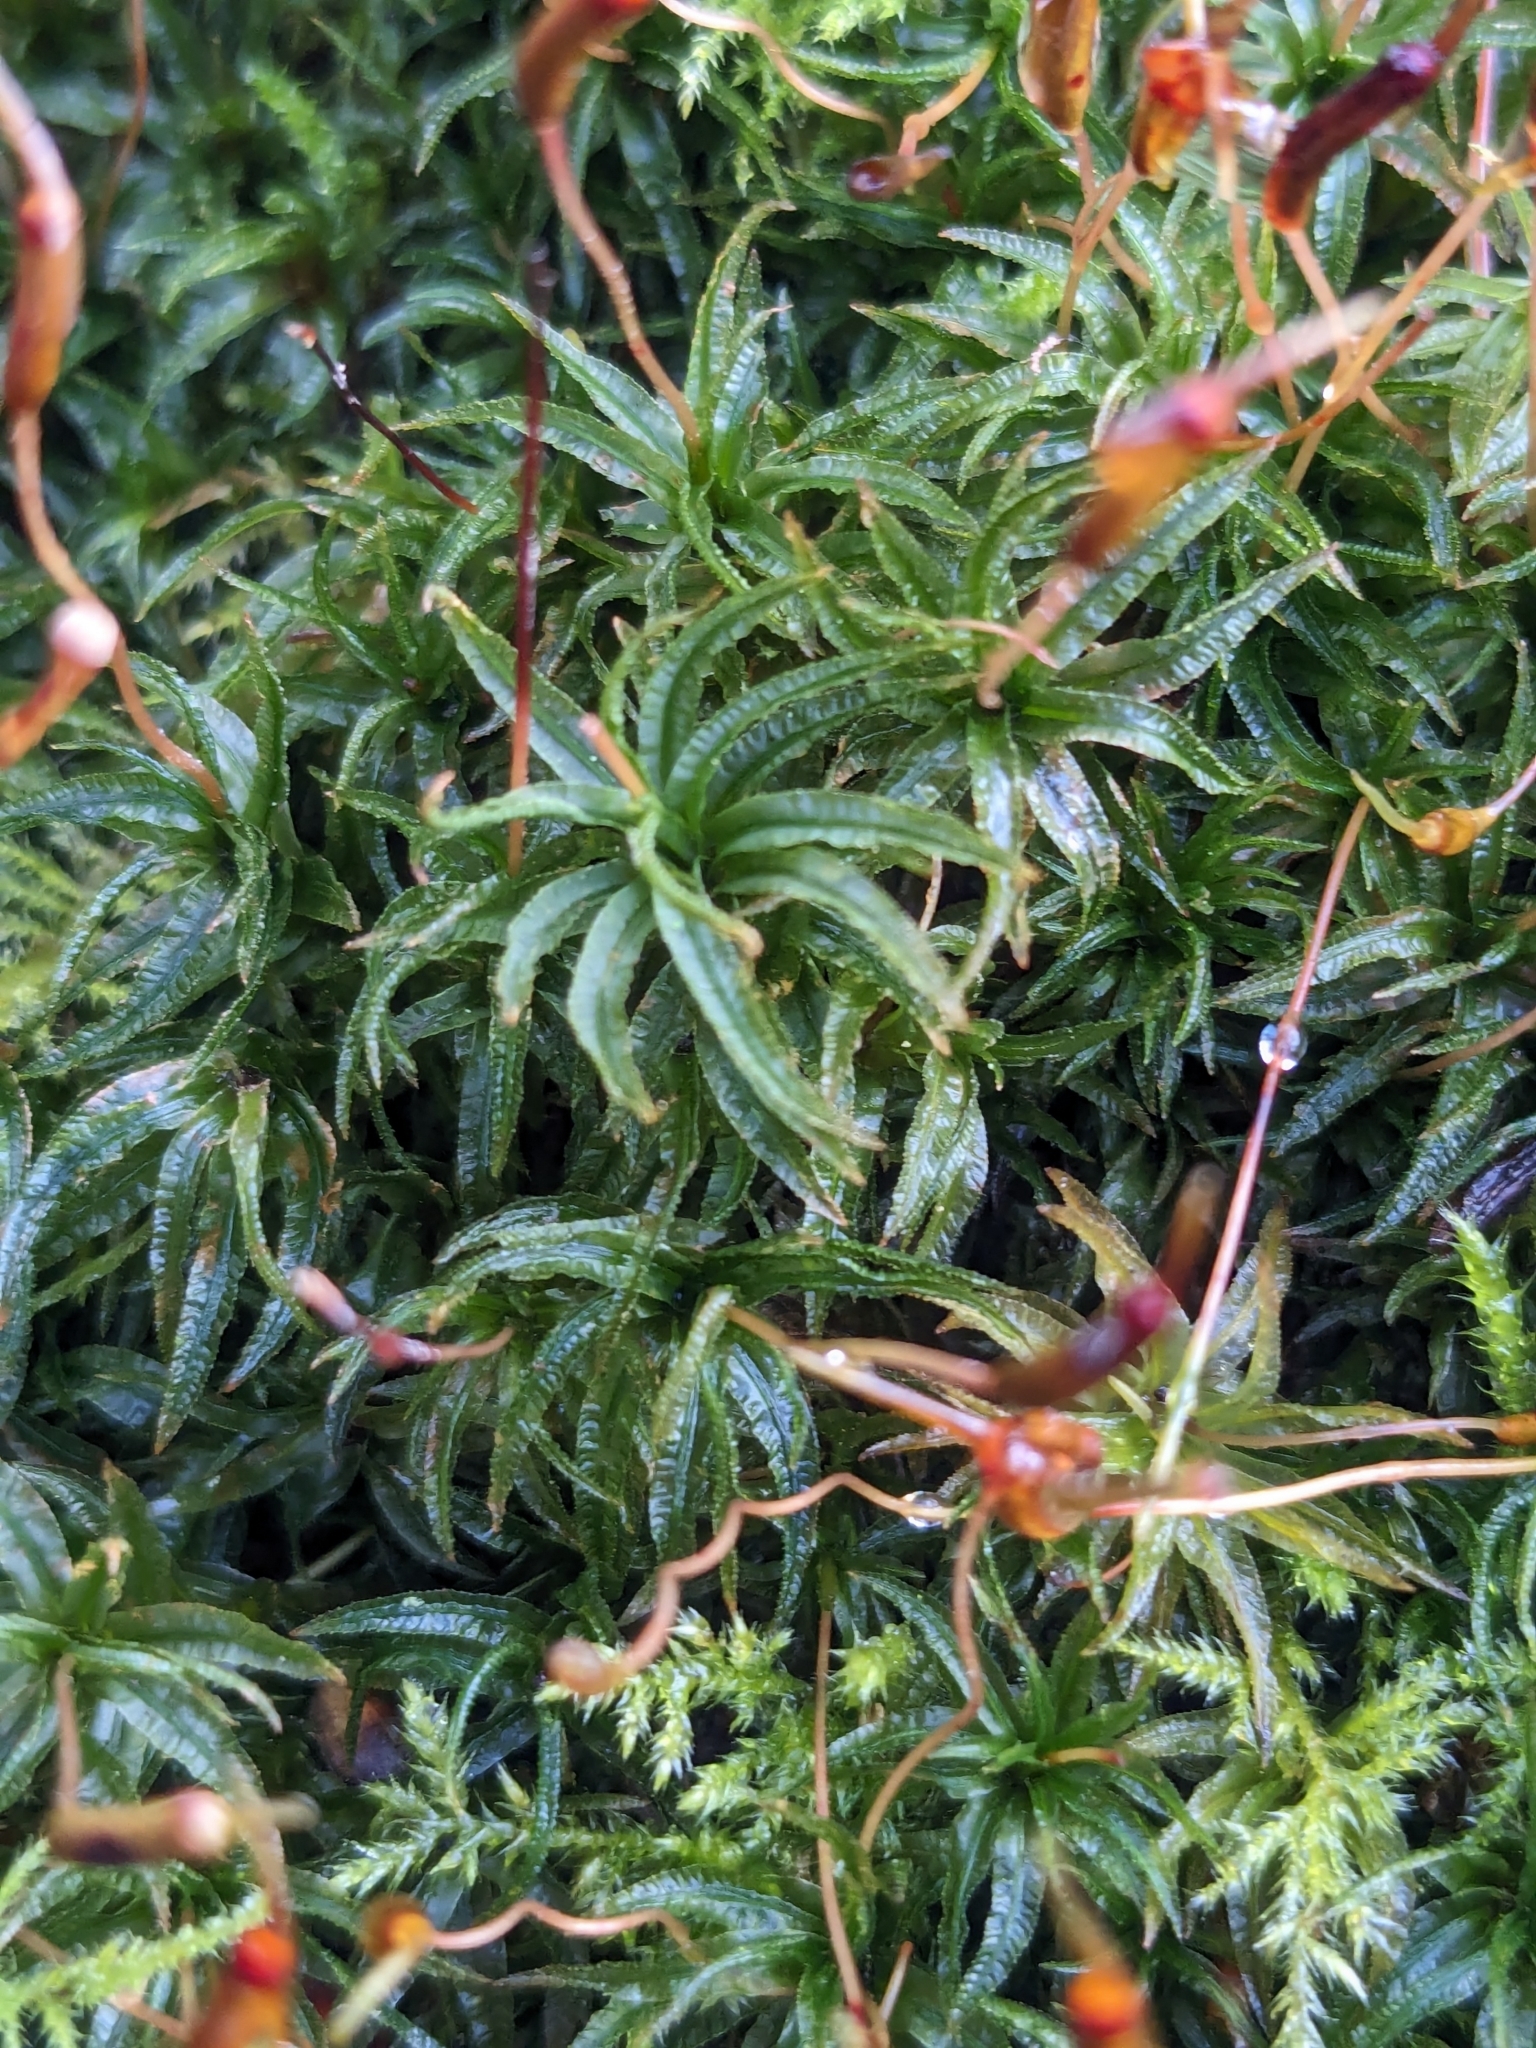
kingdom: Plantae
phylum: Bryophyta
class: Polytrichopsida
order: Polytrichales
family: Polytrichaceae
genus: Atrichum
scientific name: Atrichum undulatum
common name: Common smoothcap
